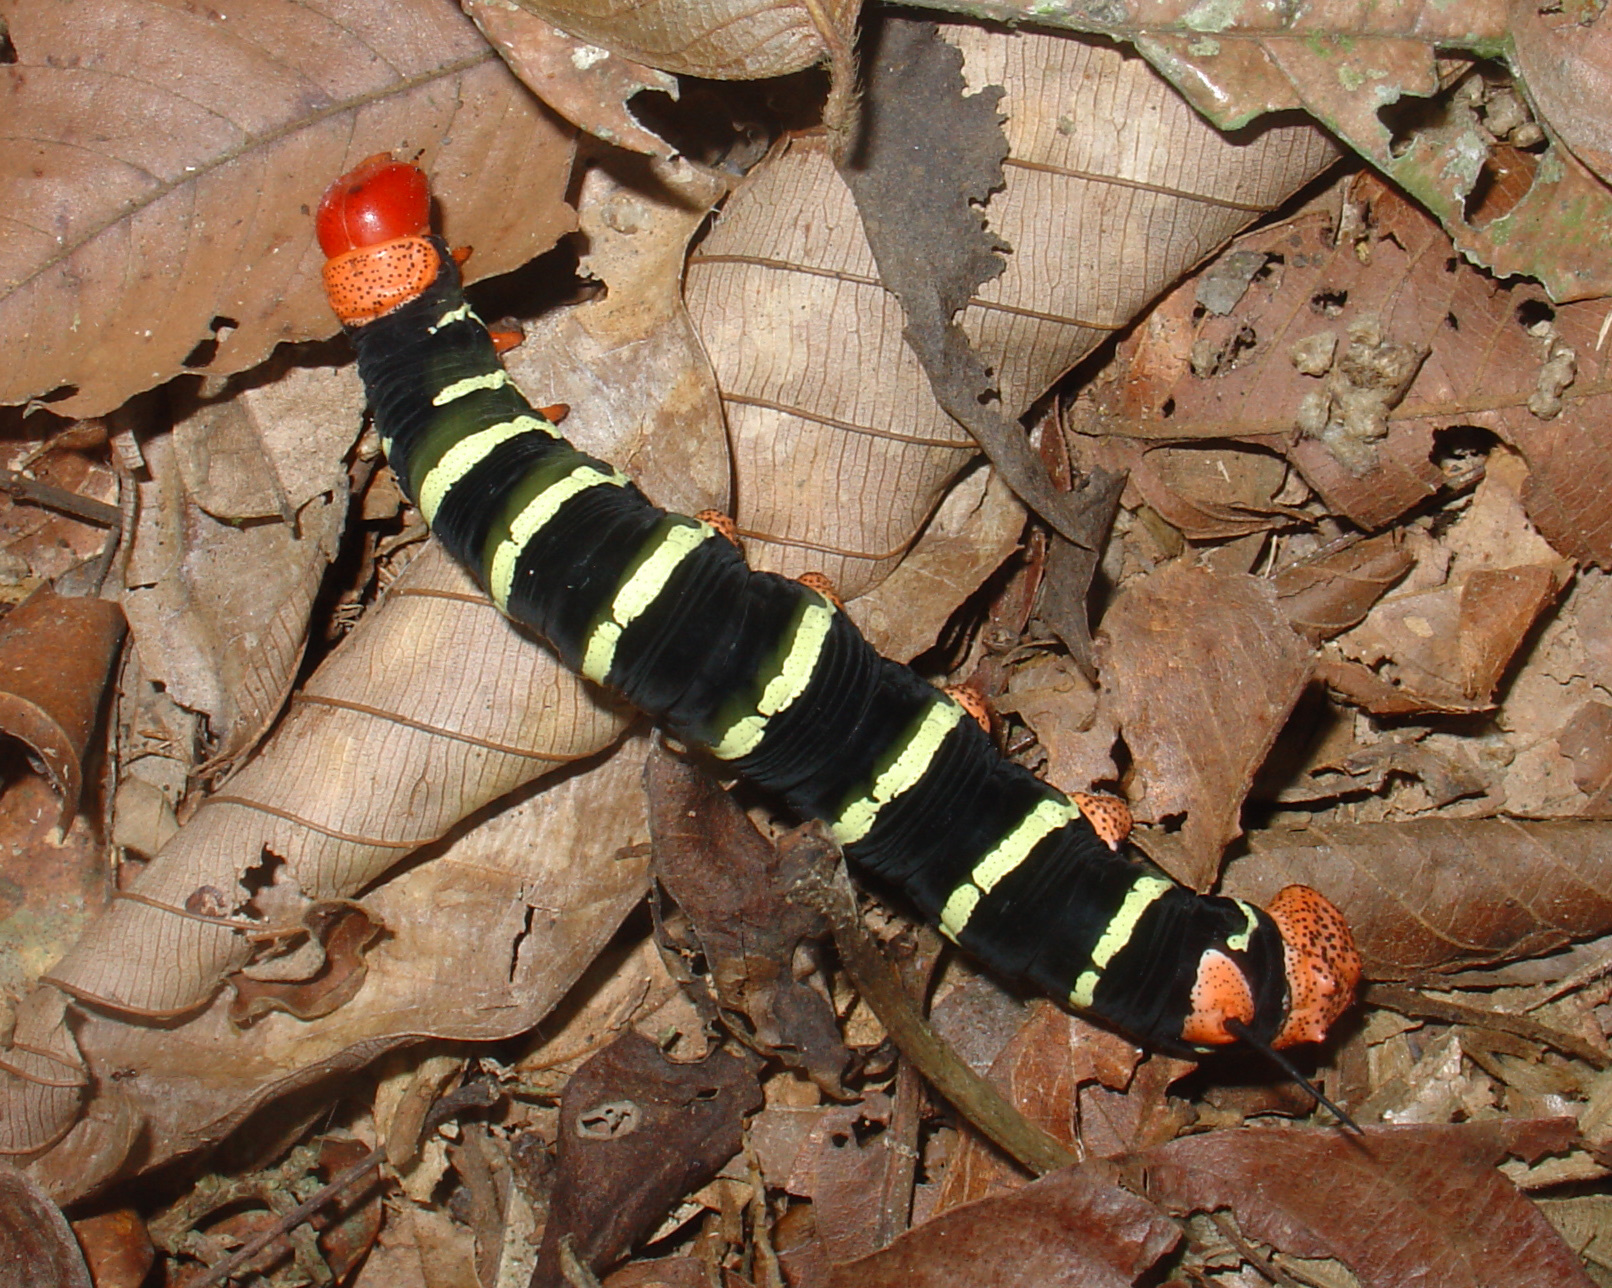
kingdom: Animalia
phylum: Arthropoda
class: Insecta
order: Lepidoptera
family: Sphingidae
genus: Pseudosphinx
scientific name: Pseudosphinx tetrio
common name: Tetrio sphinx
